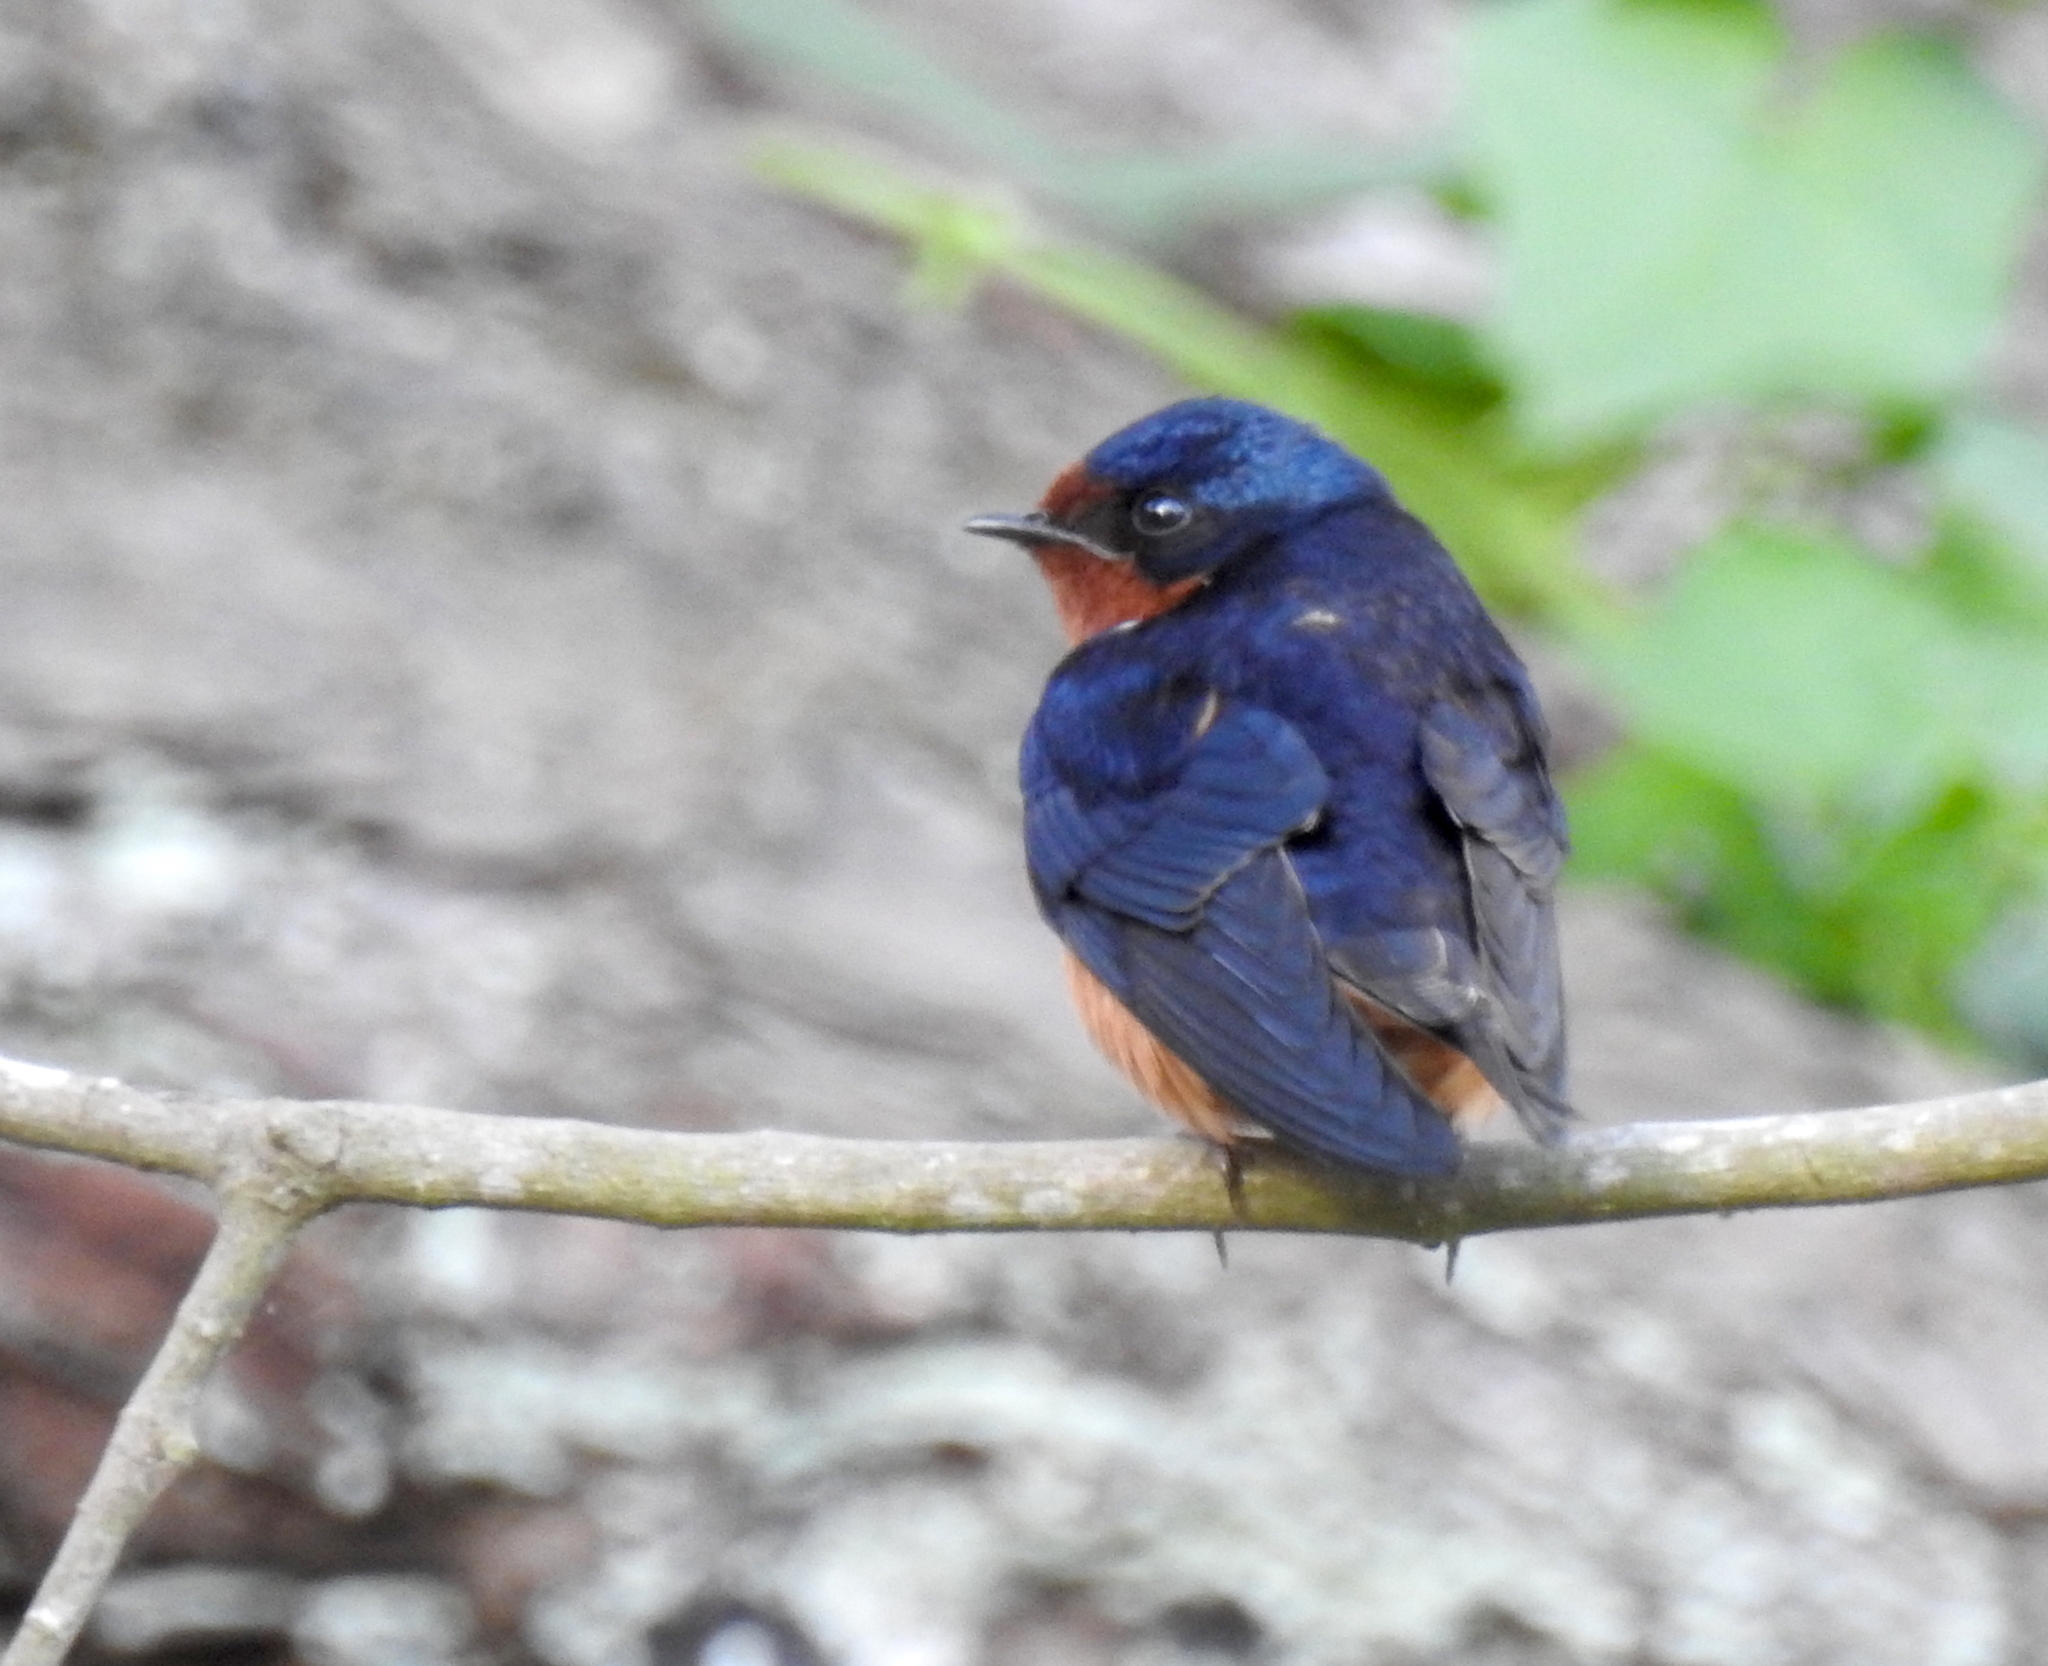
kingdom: Animalia
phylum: Chordata
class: Aves
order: Passeriformes
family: Hirundinidae
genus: Hirundo
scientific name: Hirundo rustica
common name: Barn swallow
